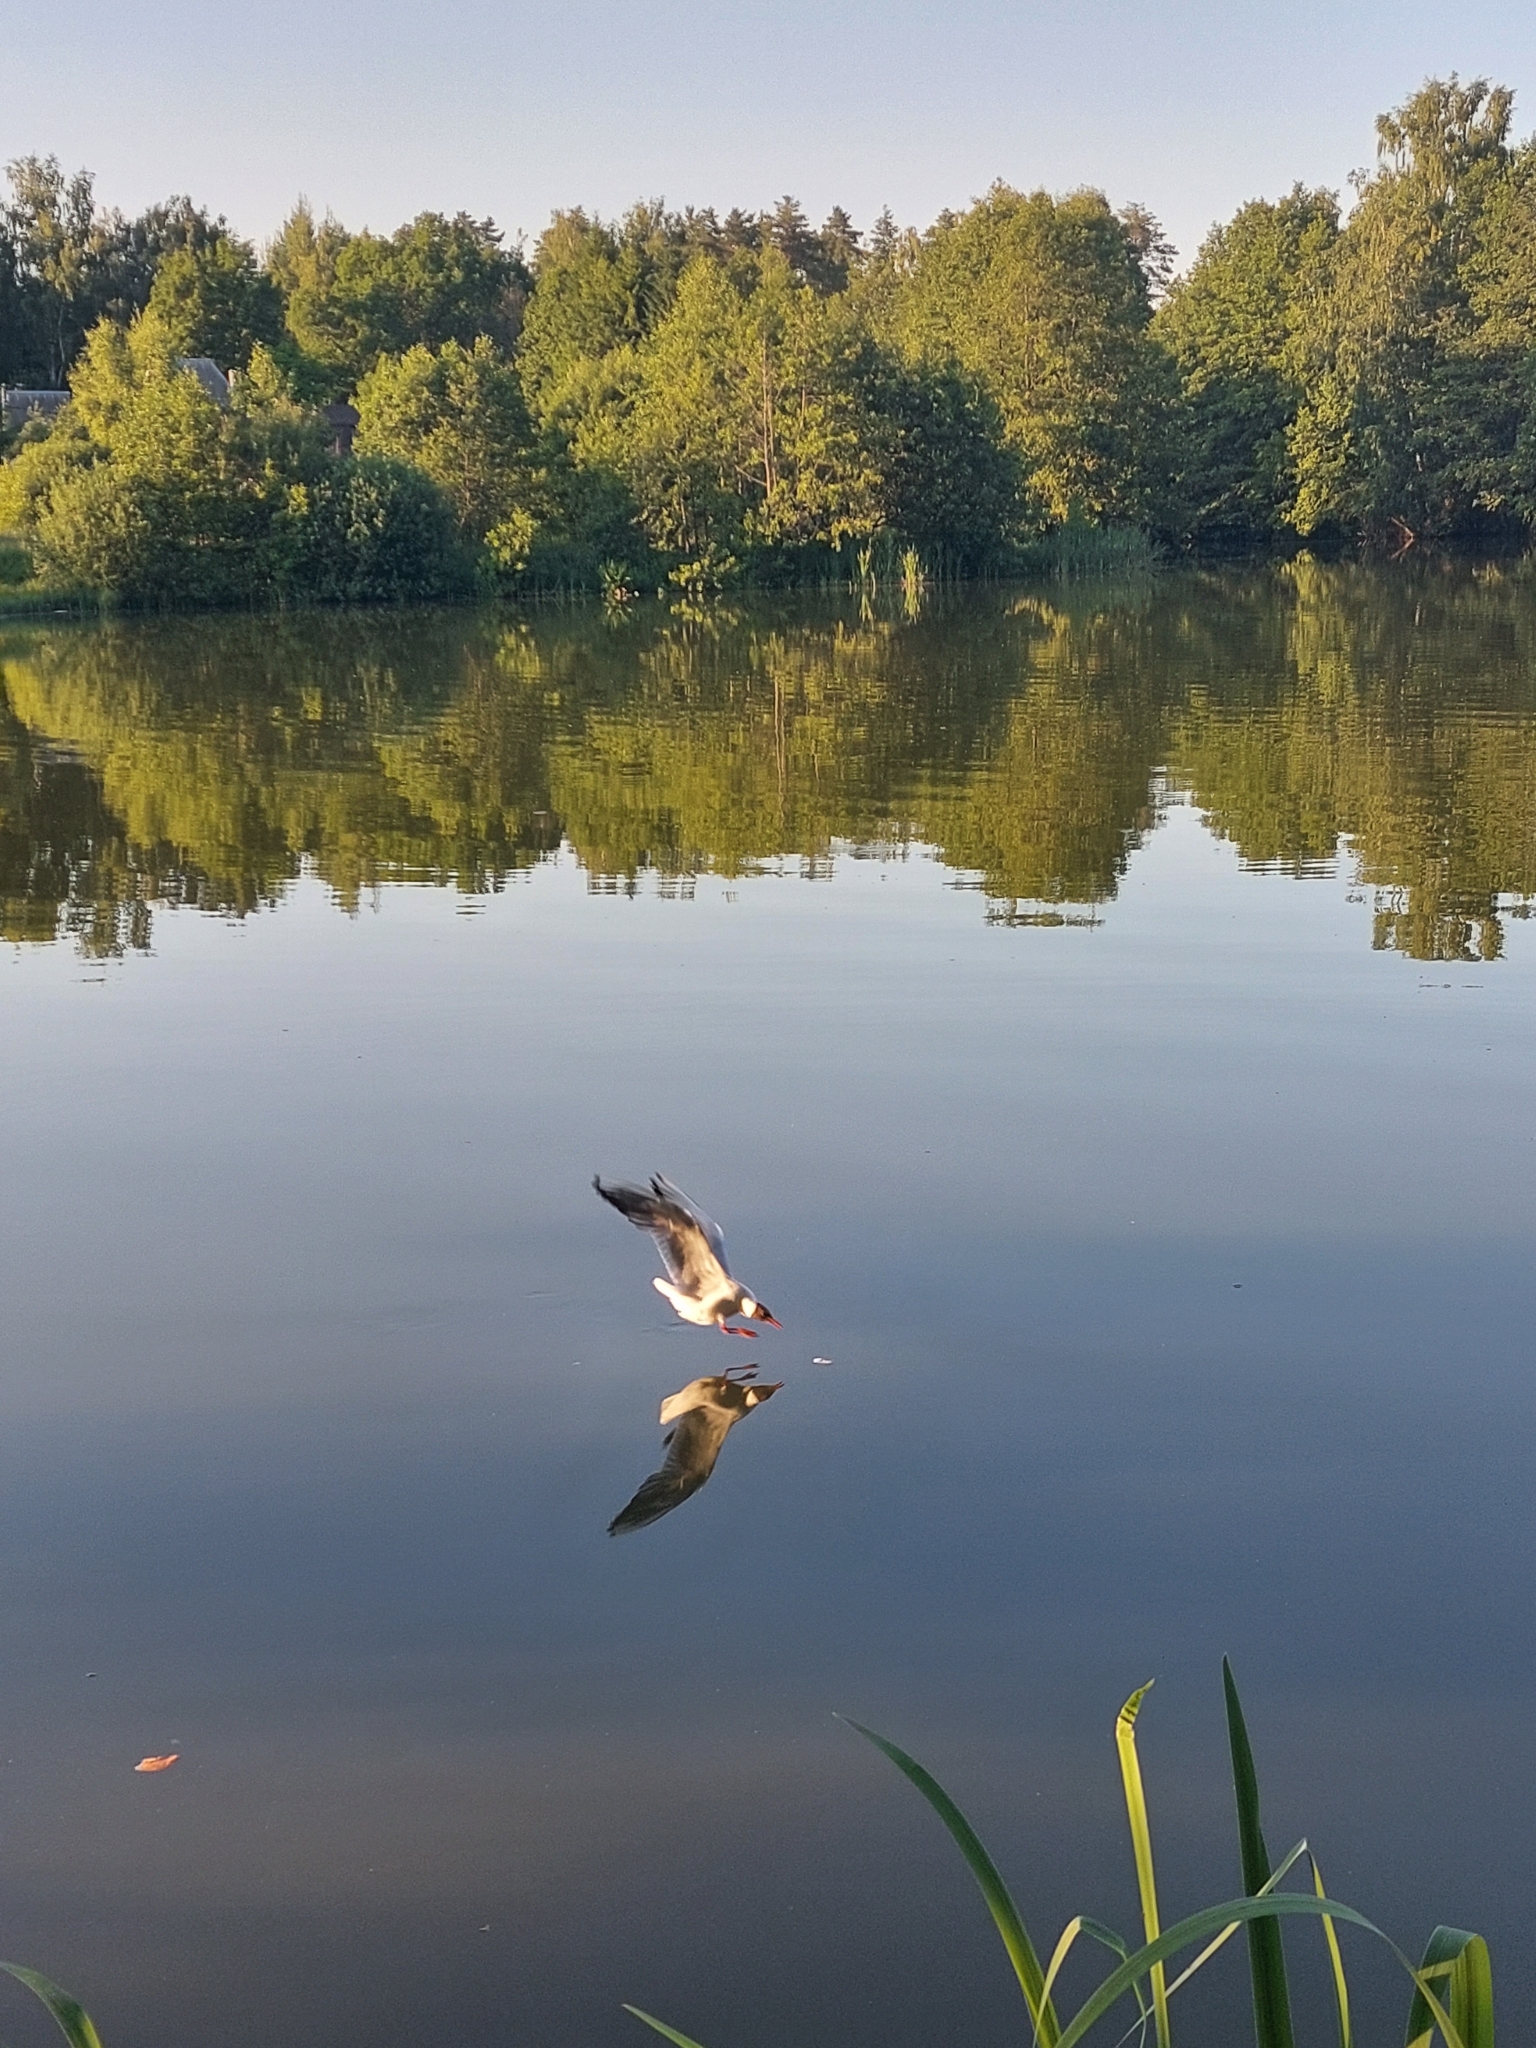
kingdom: Animalia
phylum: Chordata
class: Aves
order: Charadriiformes
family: Laridae
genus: Chroicocephalus
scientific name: Chroicocephalus ridibundus
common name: Black-headed gull
